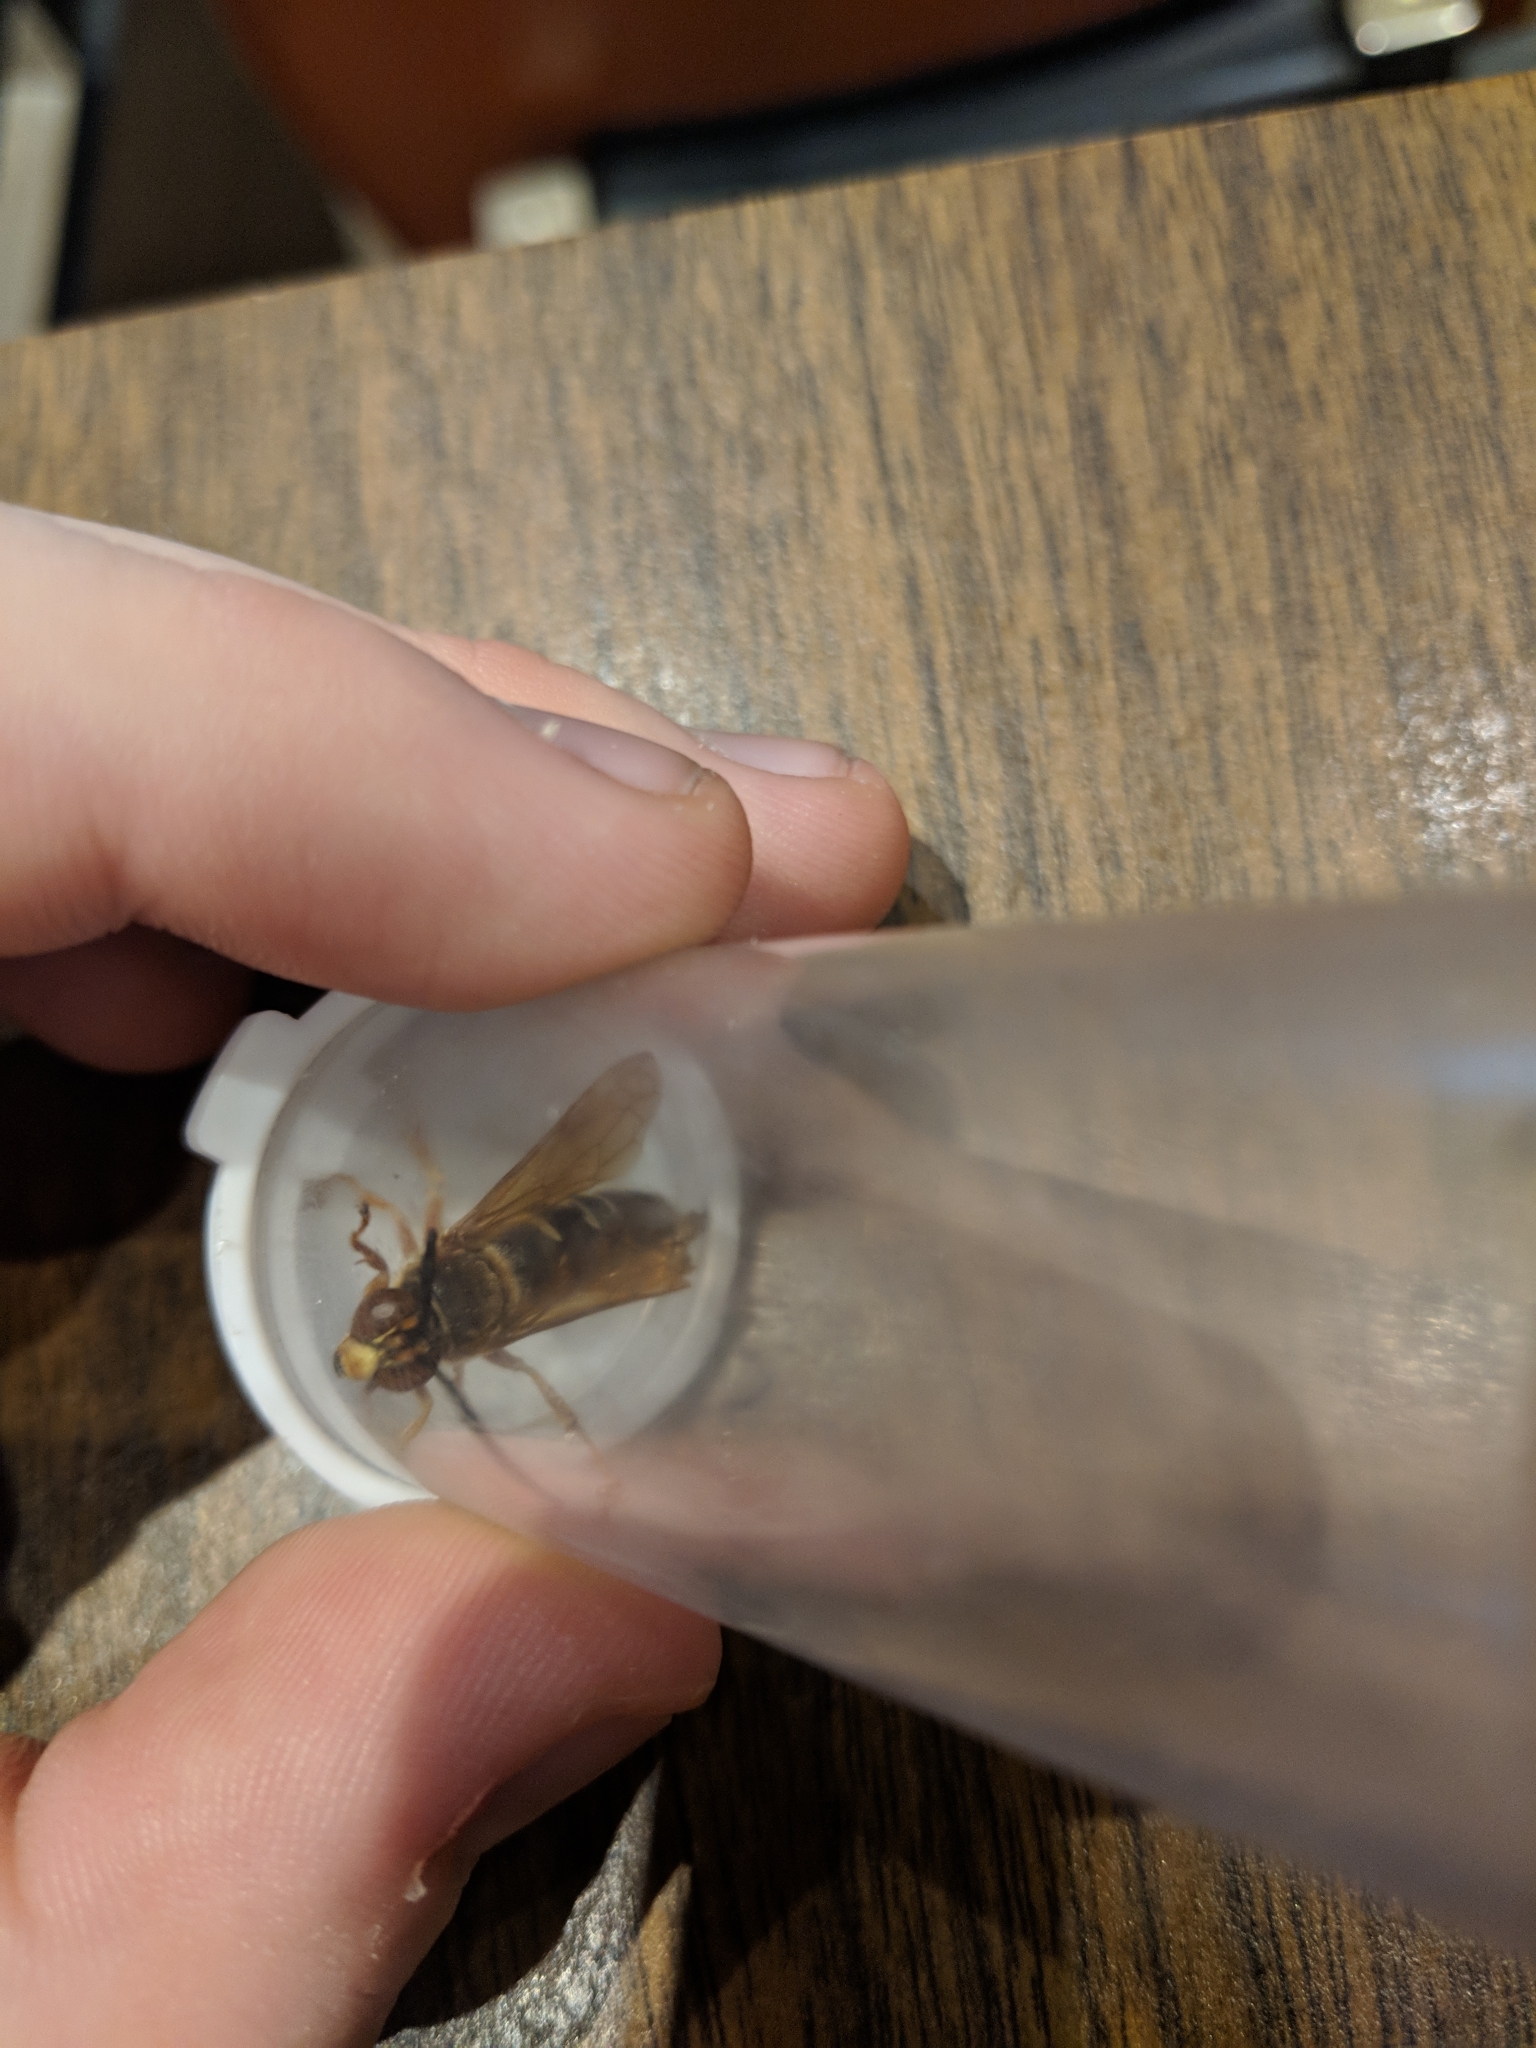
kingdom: Animalia
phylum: Arthropoda
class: Insecta
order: Hymenoptera
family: Crabronidae
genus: Sphecius
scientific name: Sphecius speciosus
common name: Cicada killer
